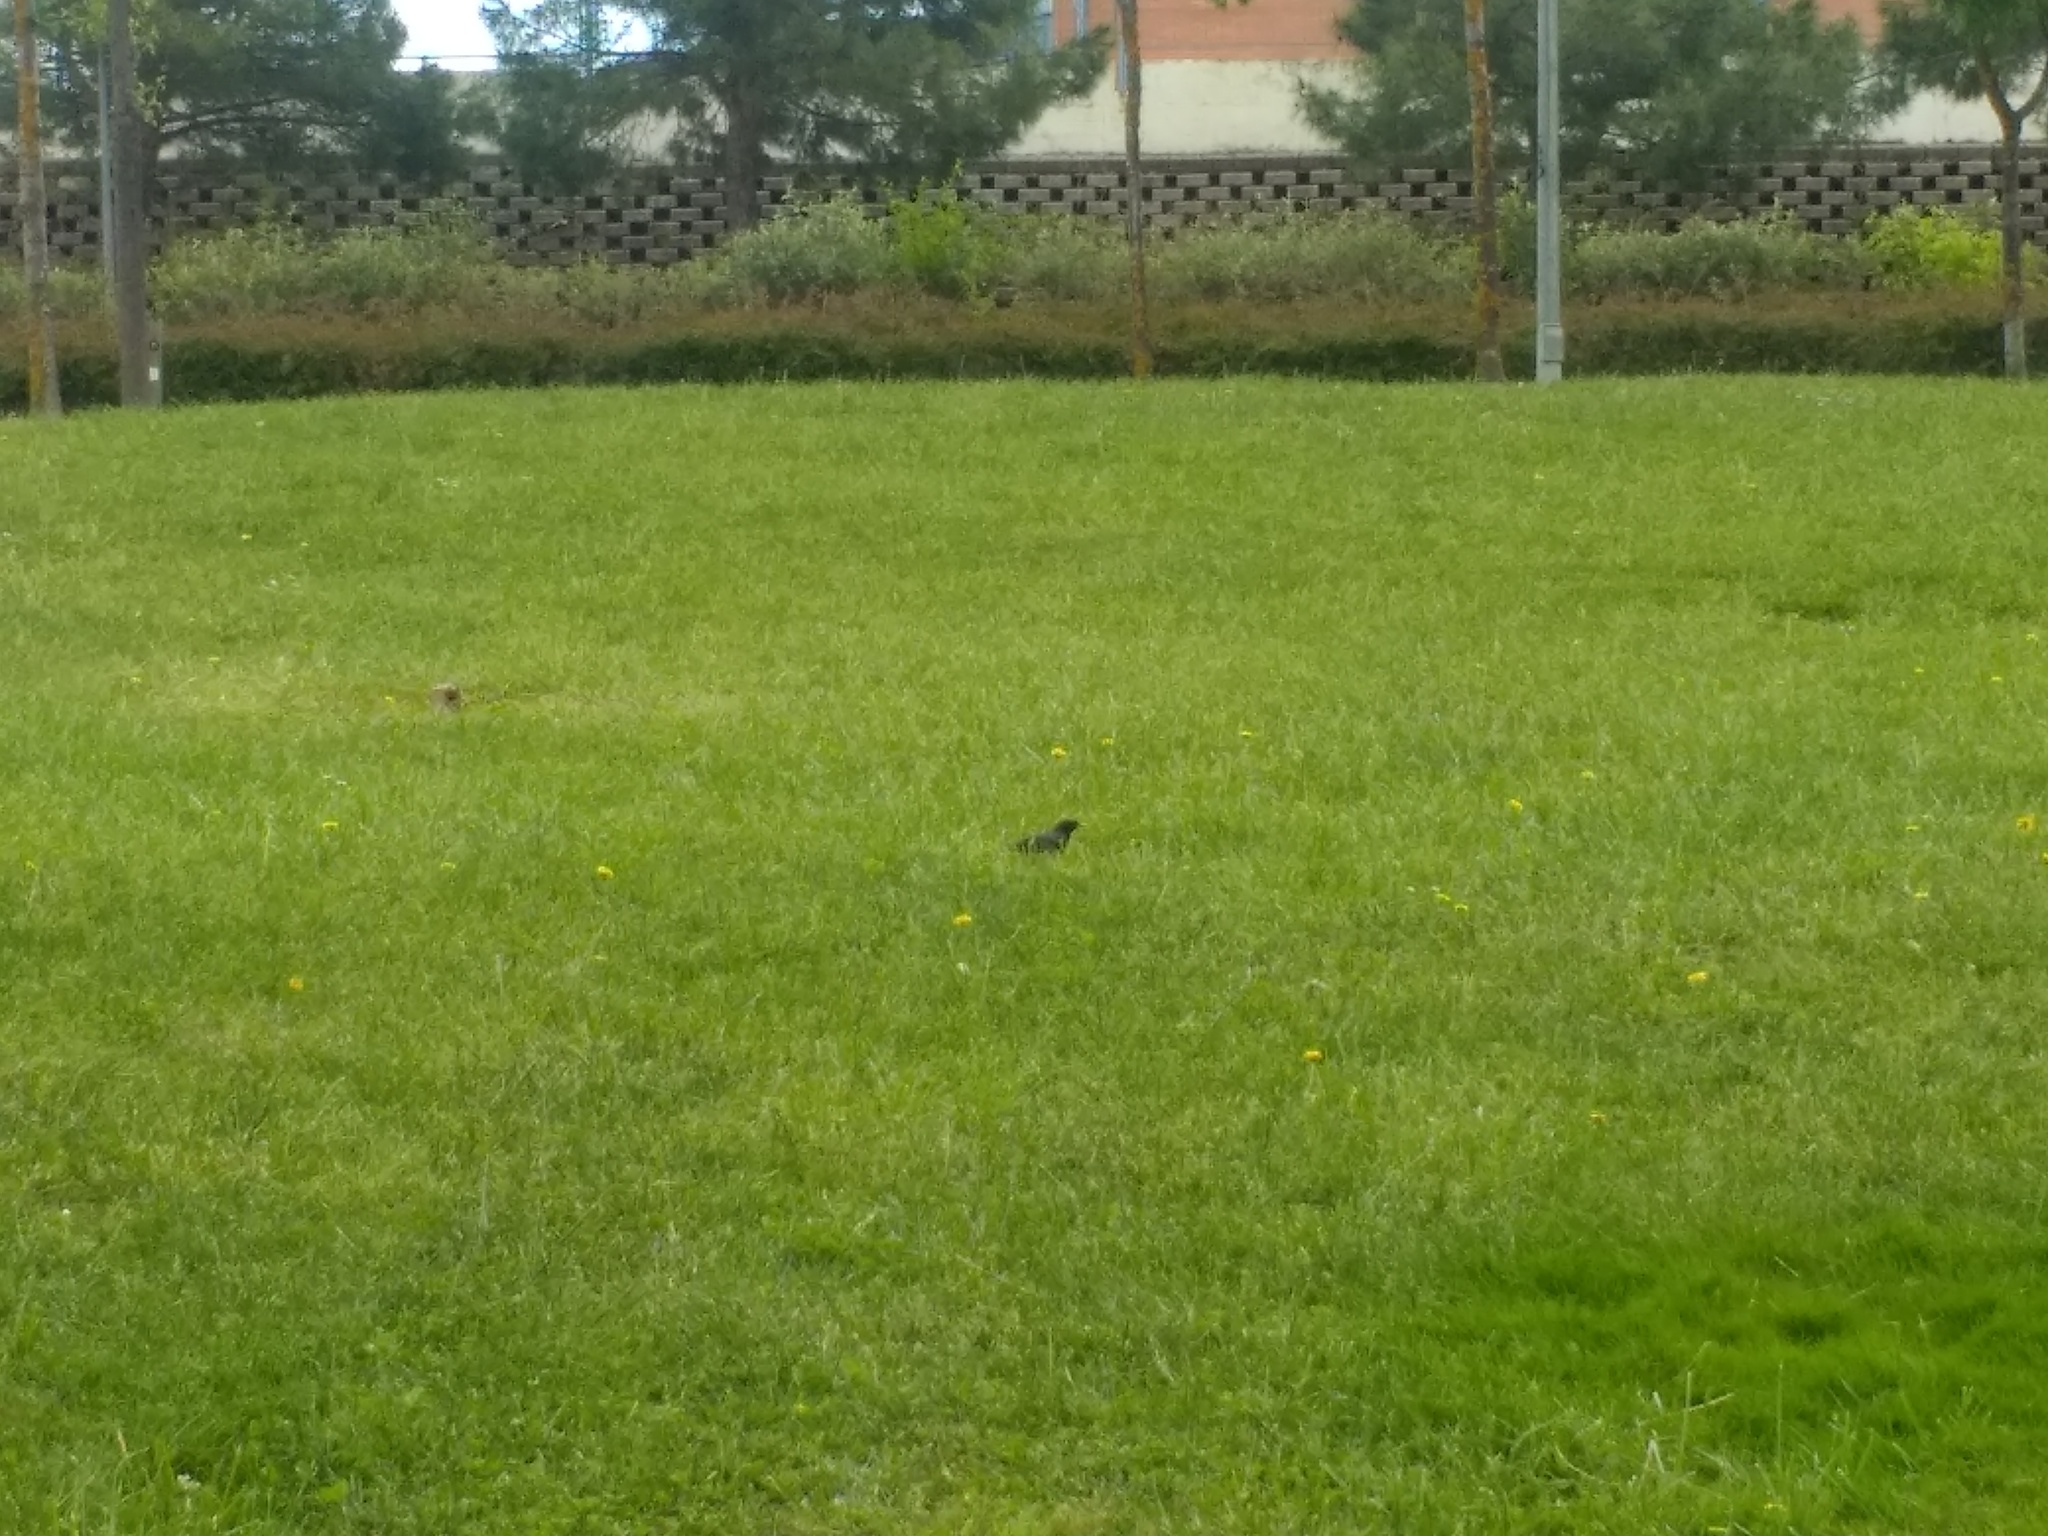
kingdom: Animalia
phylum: Chordata
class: Aves
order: Passeriformes
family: Sturnidae
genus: Sturnus
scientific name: Sturnus unicolor
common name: Spotless starling
